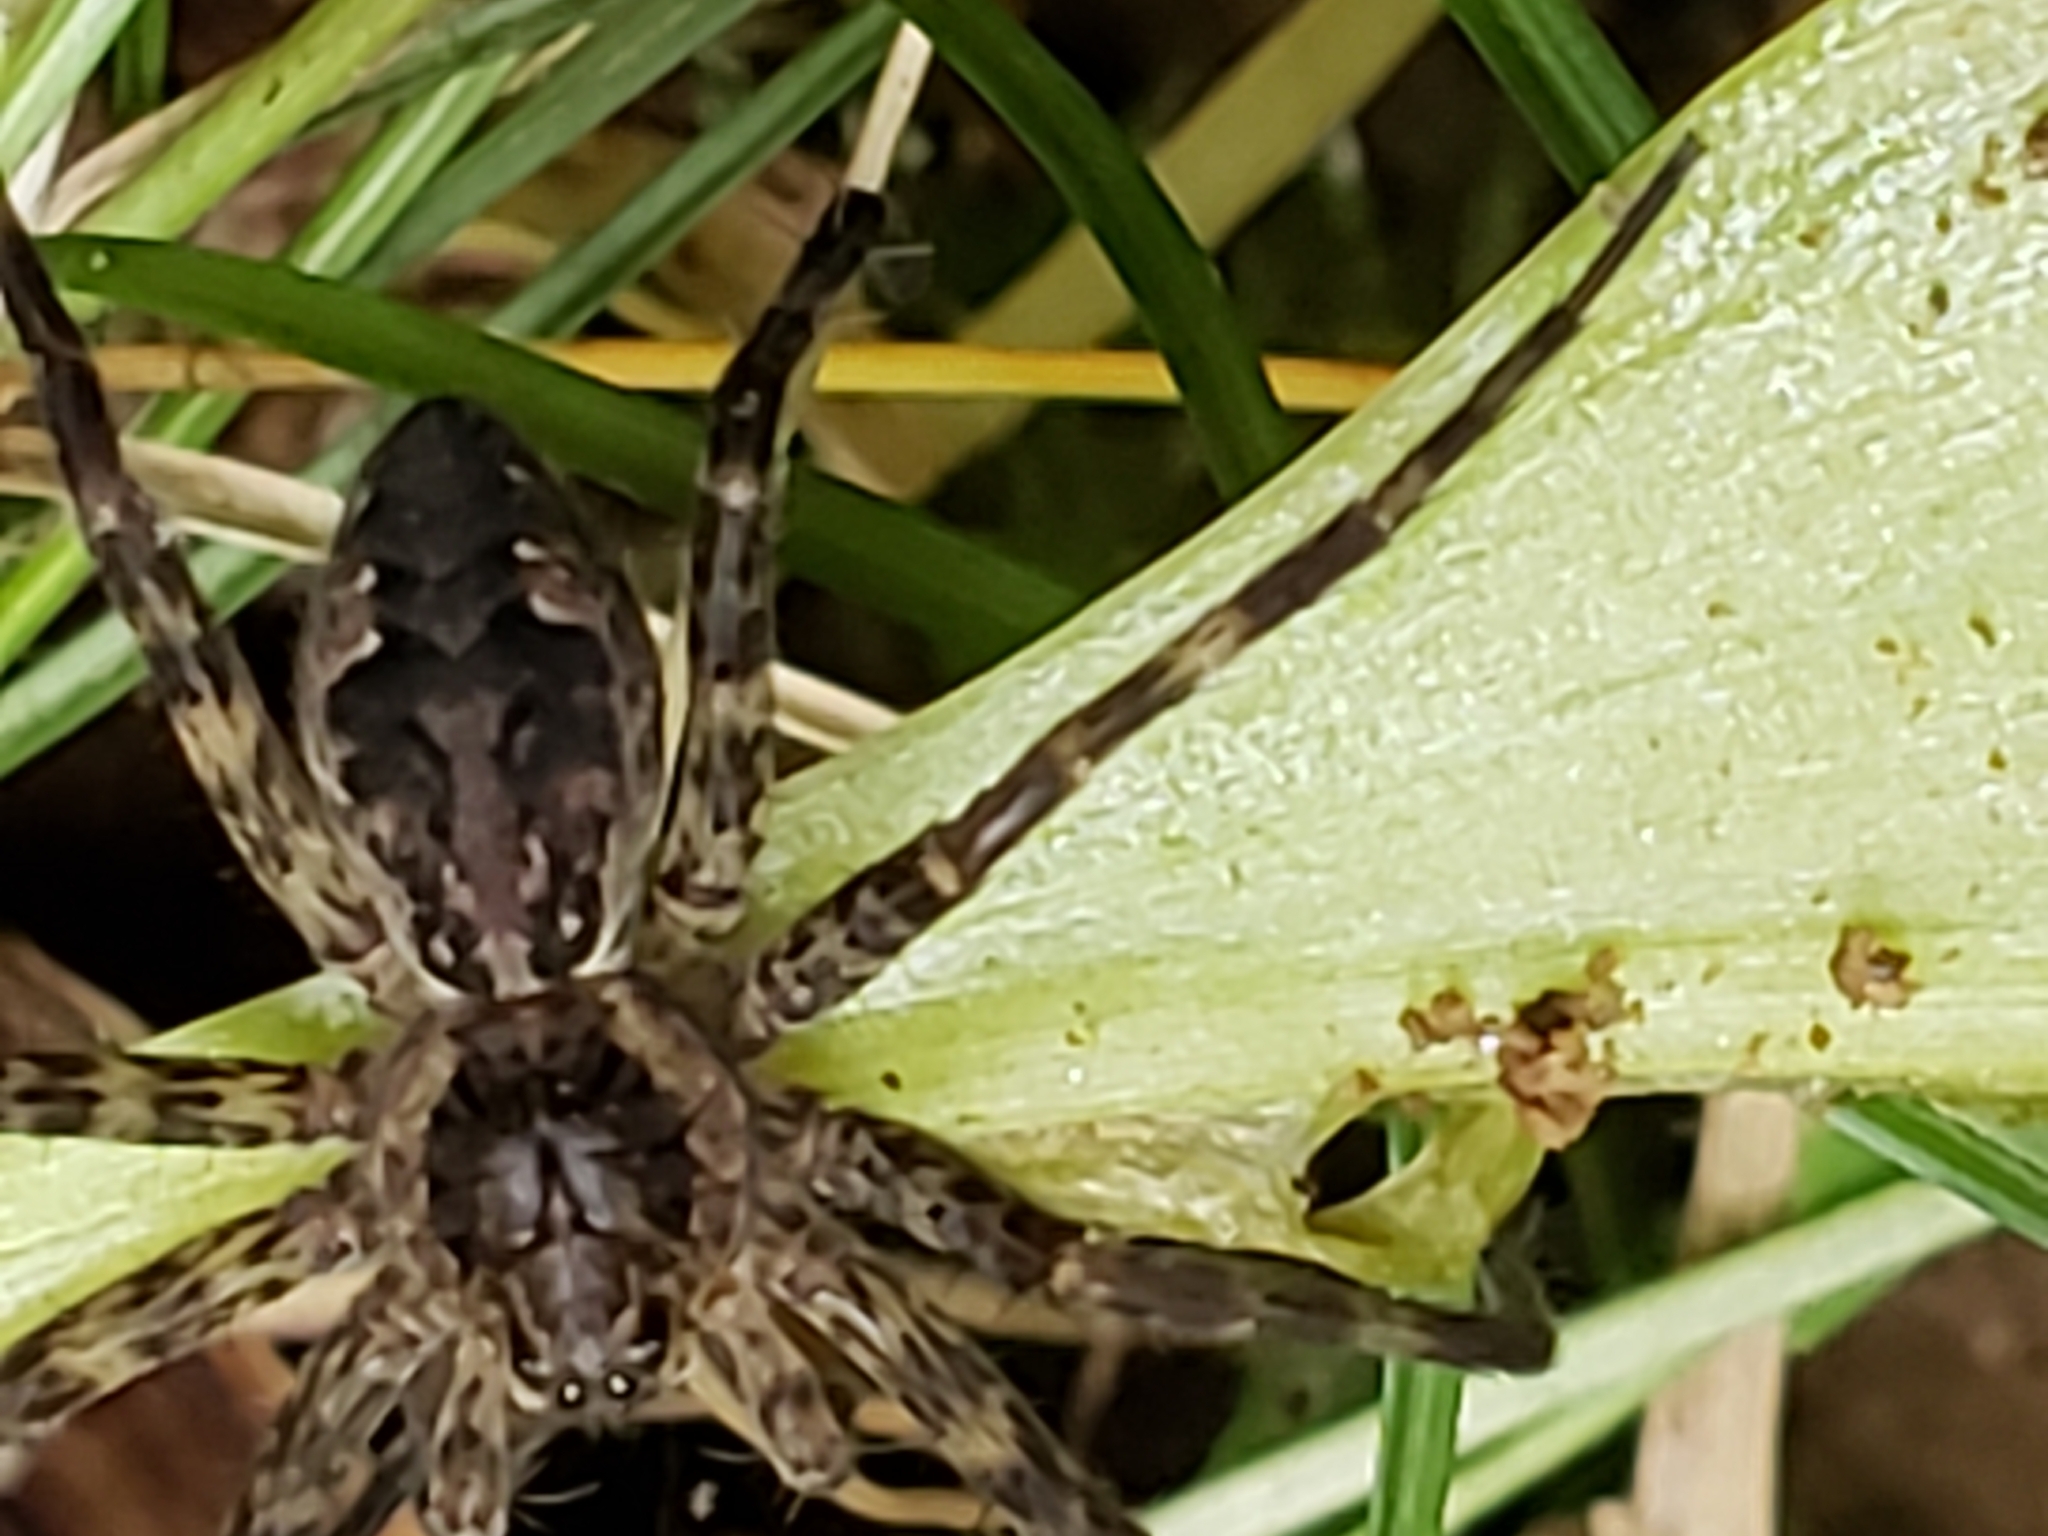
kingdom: Animalia
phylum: Arthropoda
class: Arachnida
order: Araneae
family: Pisauridae
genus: Dolomedes
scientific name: Dolomedes tenebrosus
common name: Dark fishing spider
